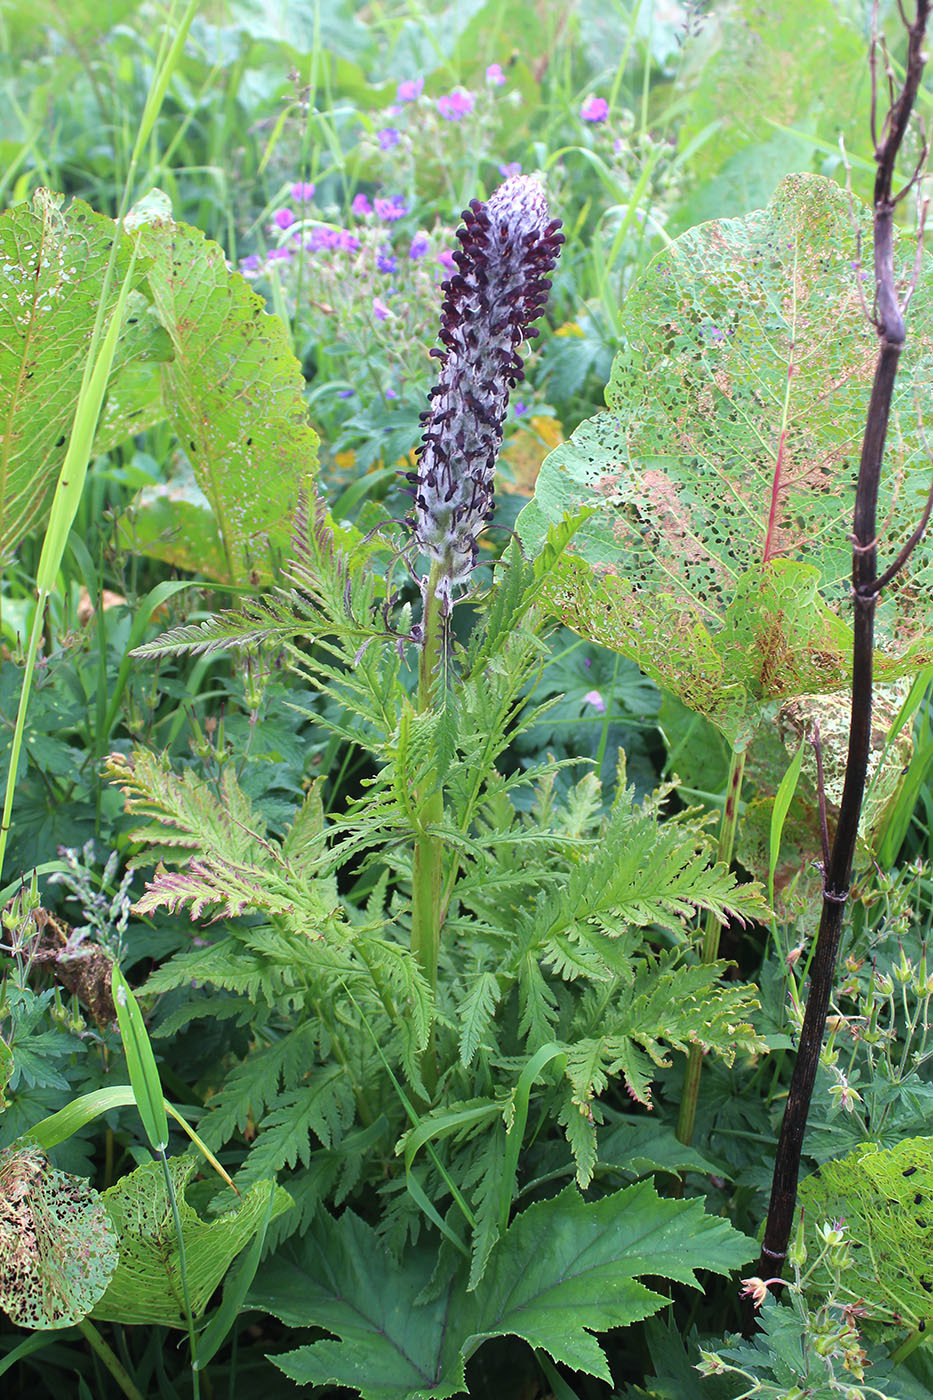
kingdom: Plantae
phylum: Tracheophyta
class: Magnoliopsida
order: Lamiales
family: Orobanchaceae
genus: Pedicularis
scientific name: Pedicularis atropurpurea
